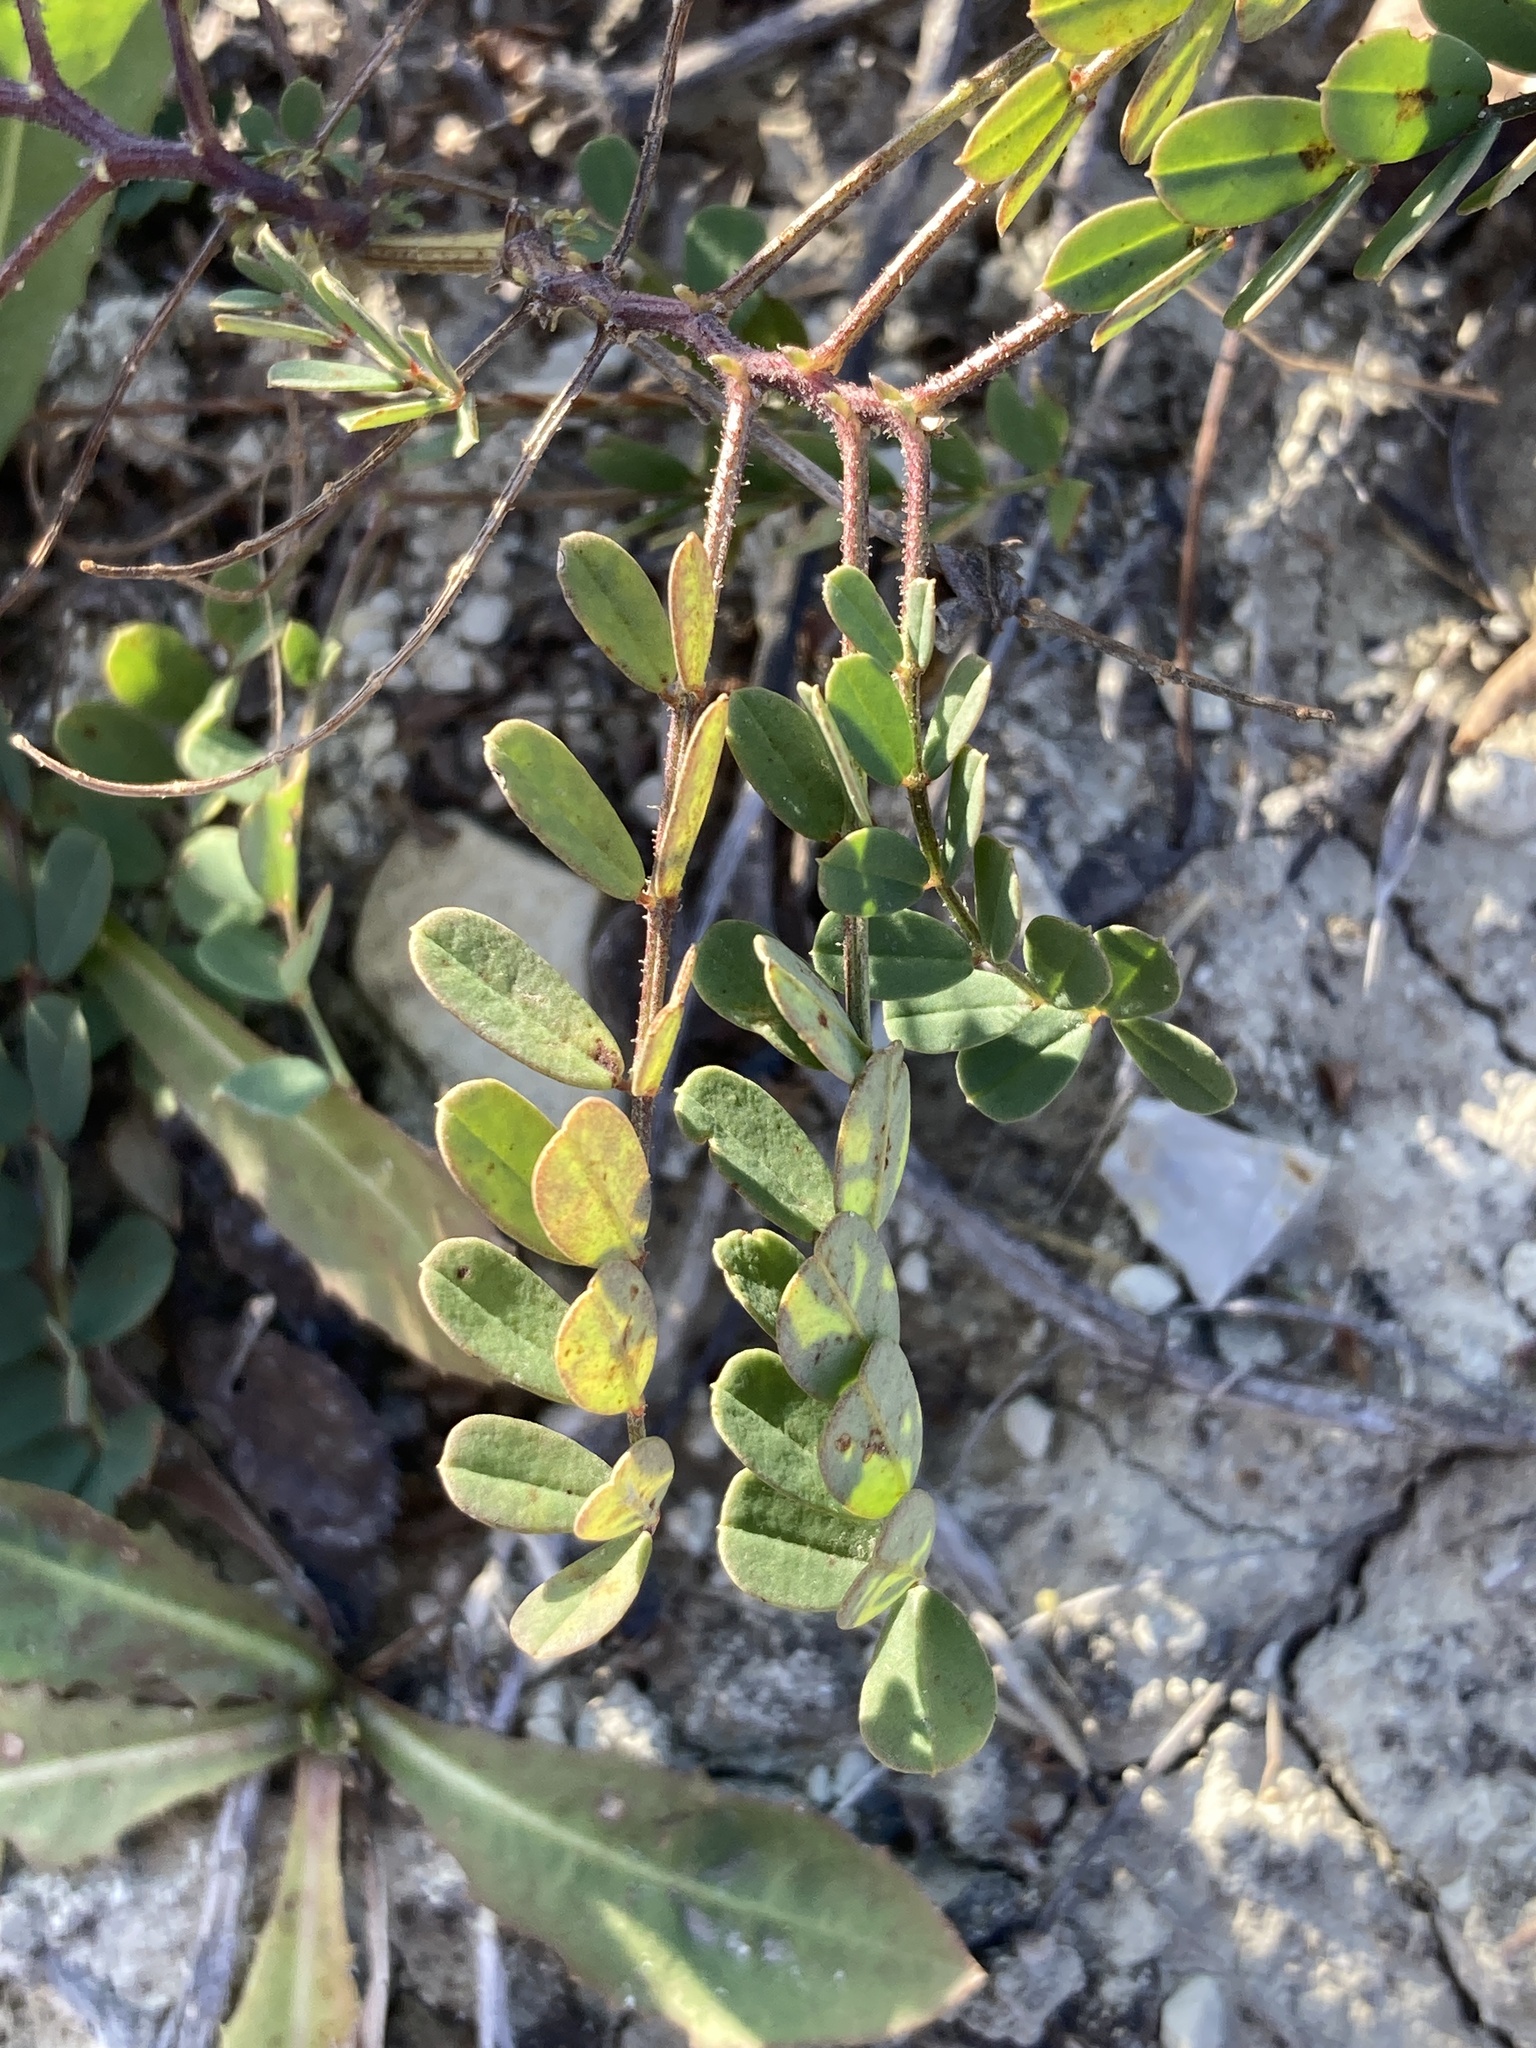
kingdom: Plantae
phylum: Tracheophyta
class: Magnoliopsida
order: Fabales
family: Fabaceae
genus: Coronilla
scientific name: Coronilla varia
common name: Crownvetch
